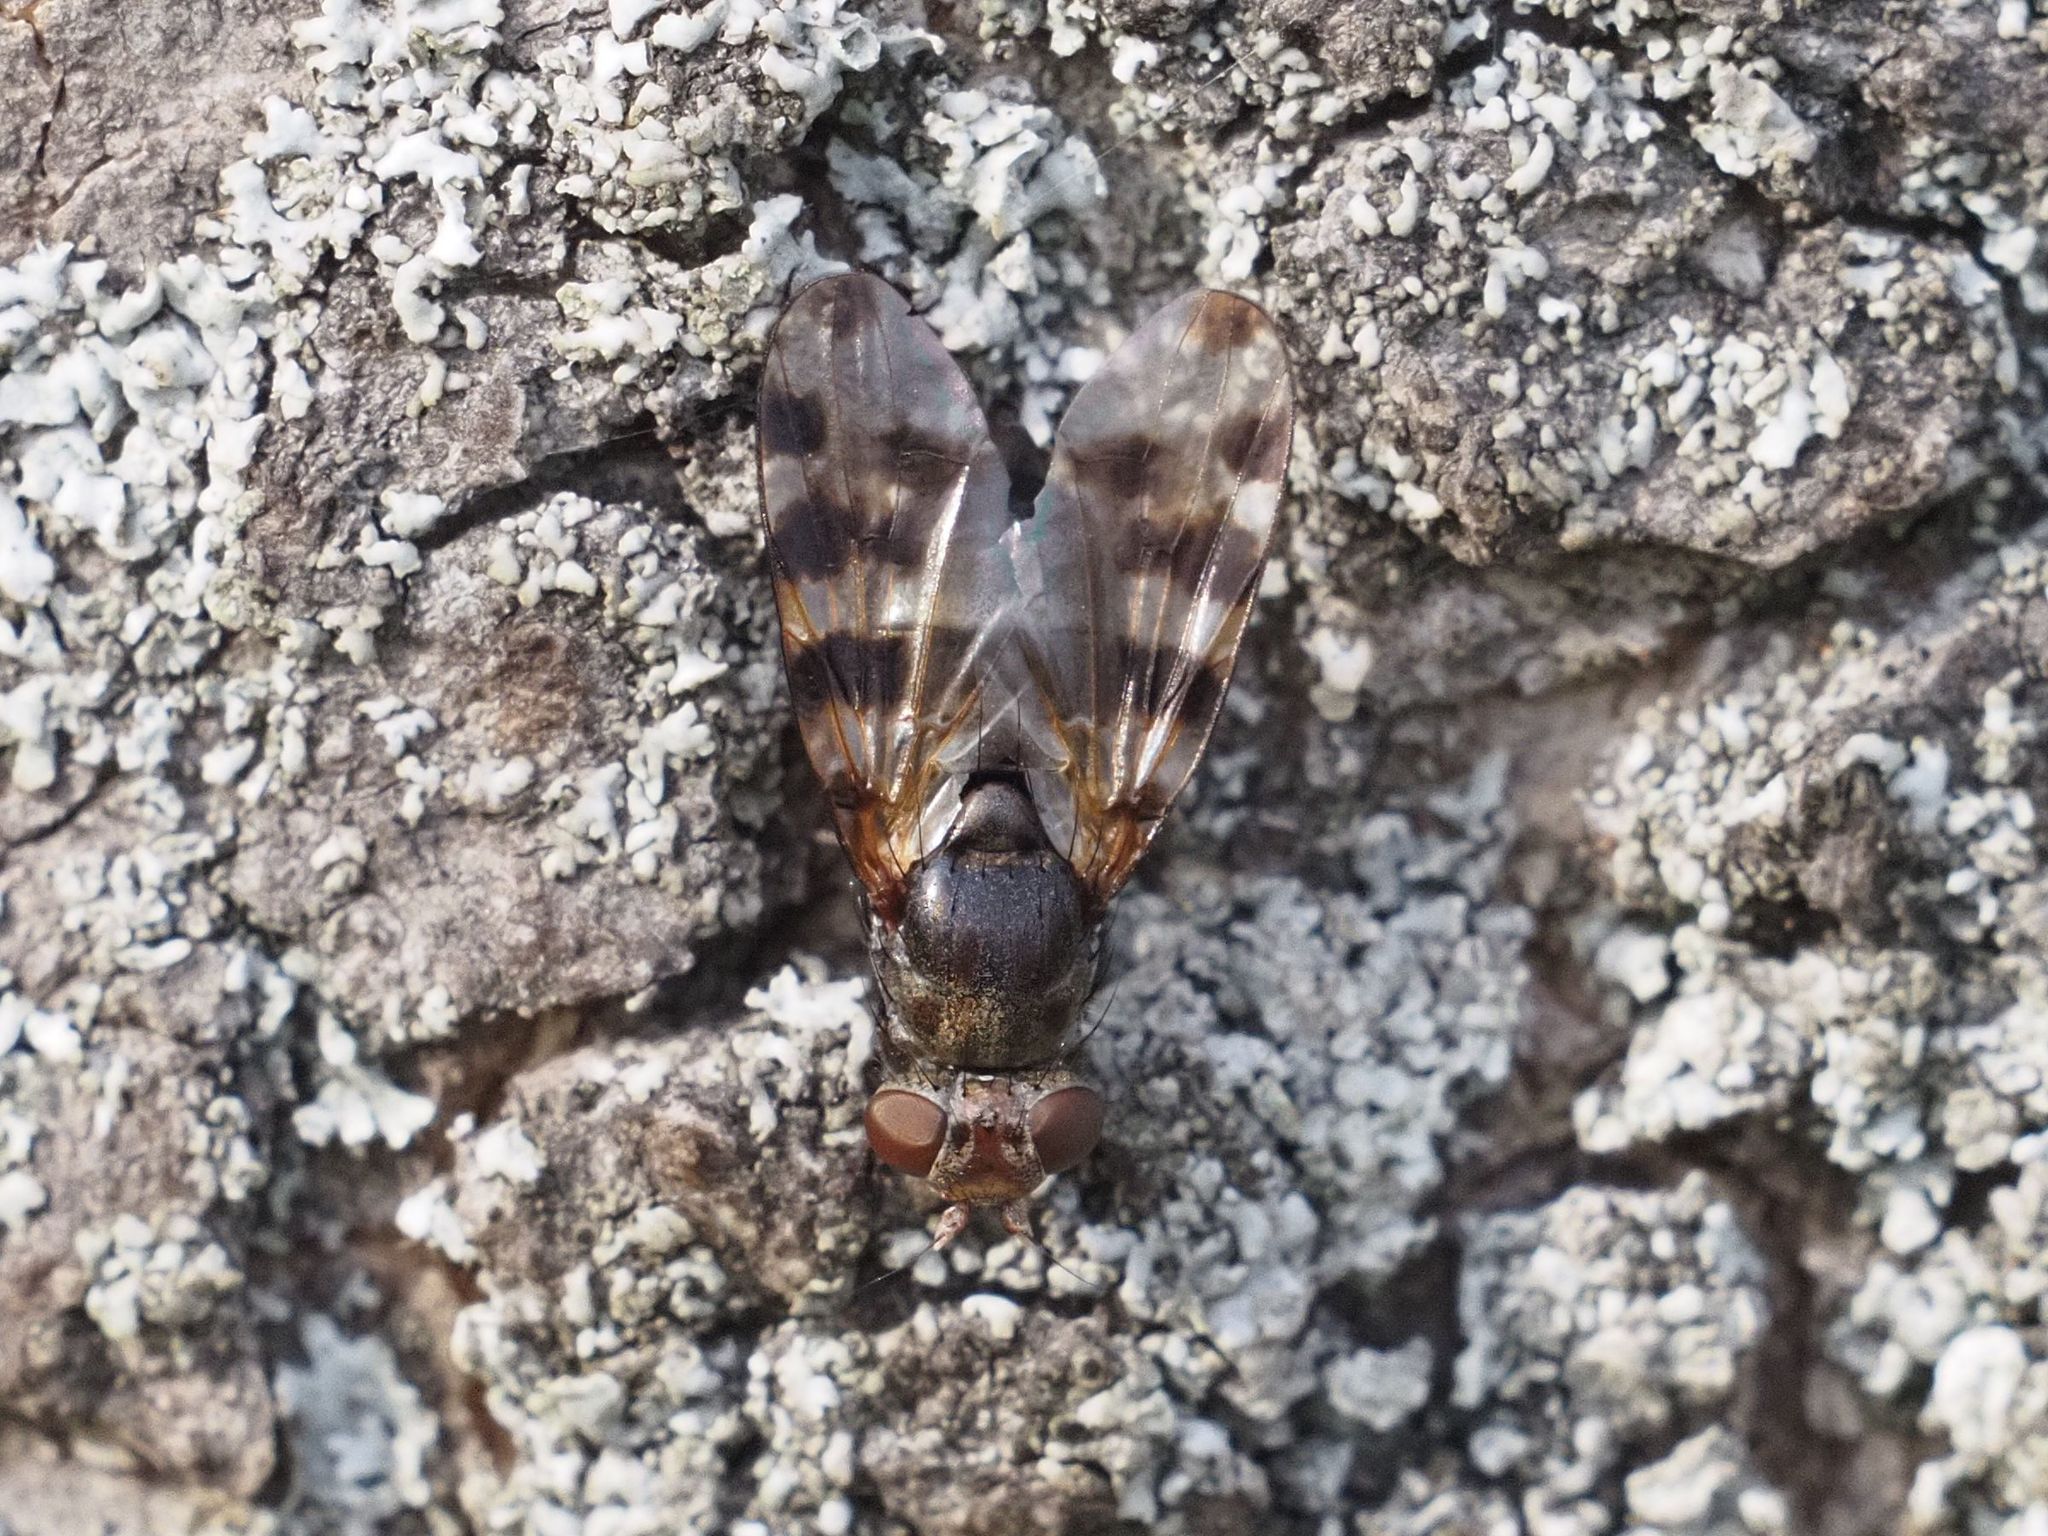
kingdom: Animalia
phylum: Arthropoda
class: Insecta
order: Diptera
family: Ulidiidae
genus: Ceroxys
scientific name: Ceroxys hyalinata
